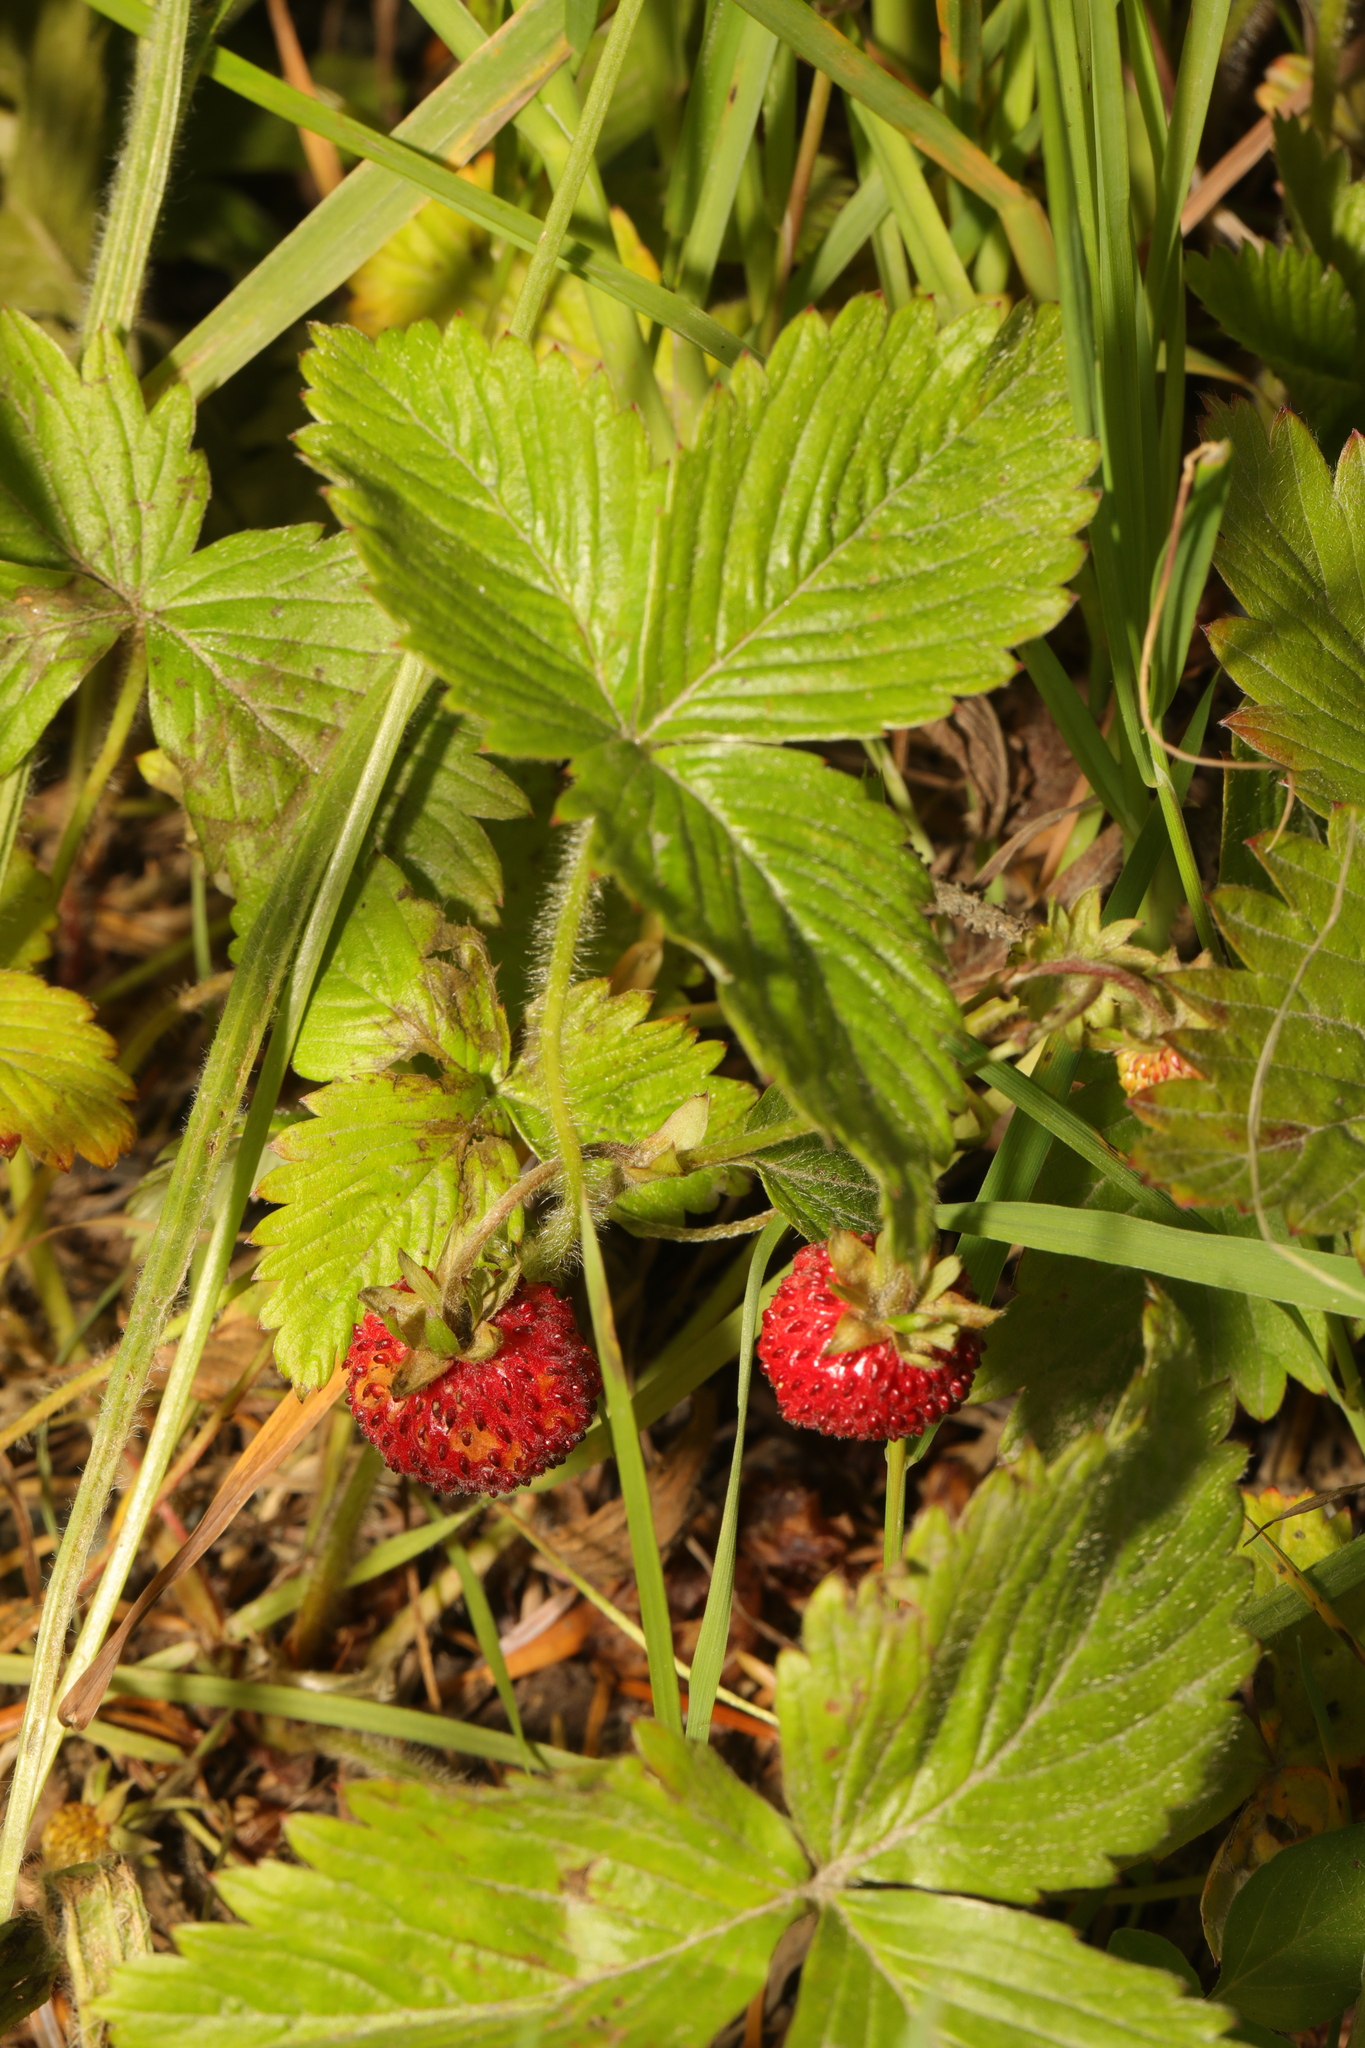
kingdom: Plantae
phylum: Tracheophyta
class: Magnoliopsida
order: Rosales
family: Rosaceae
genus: Fragaria
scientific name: Fragaria vesca
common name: Wild strawberry
